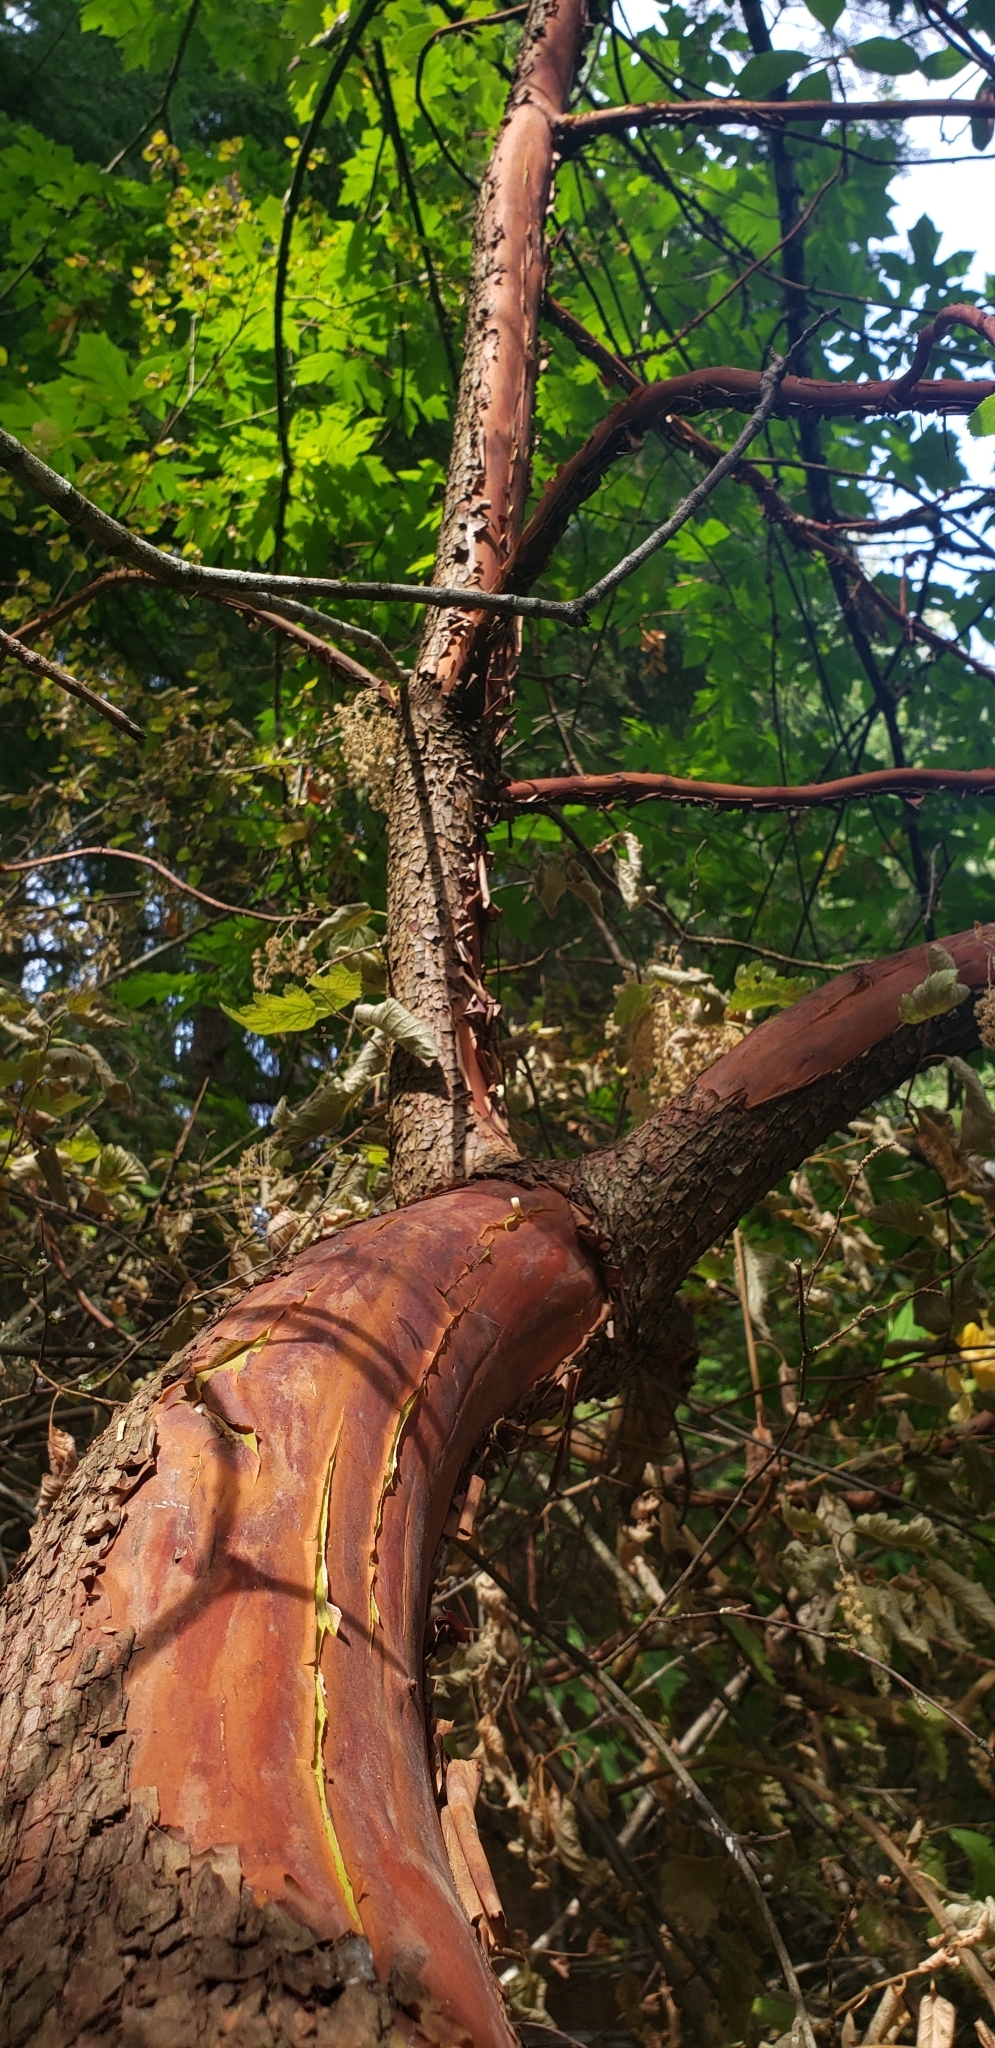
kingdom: Plantae
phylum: Tracheophyta
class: Magnoliopsida
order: Ericales
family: Ericaceae
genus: Arbutus
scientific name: Arbutus menziesii
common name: Pacific madrone
